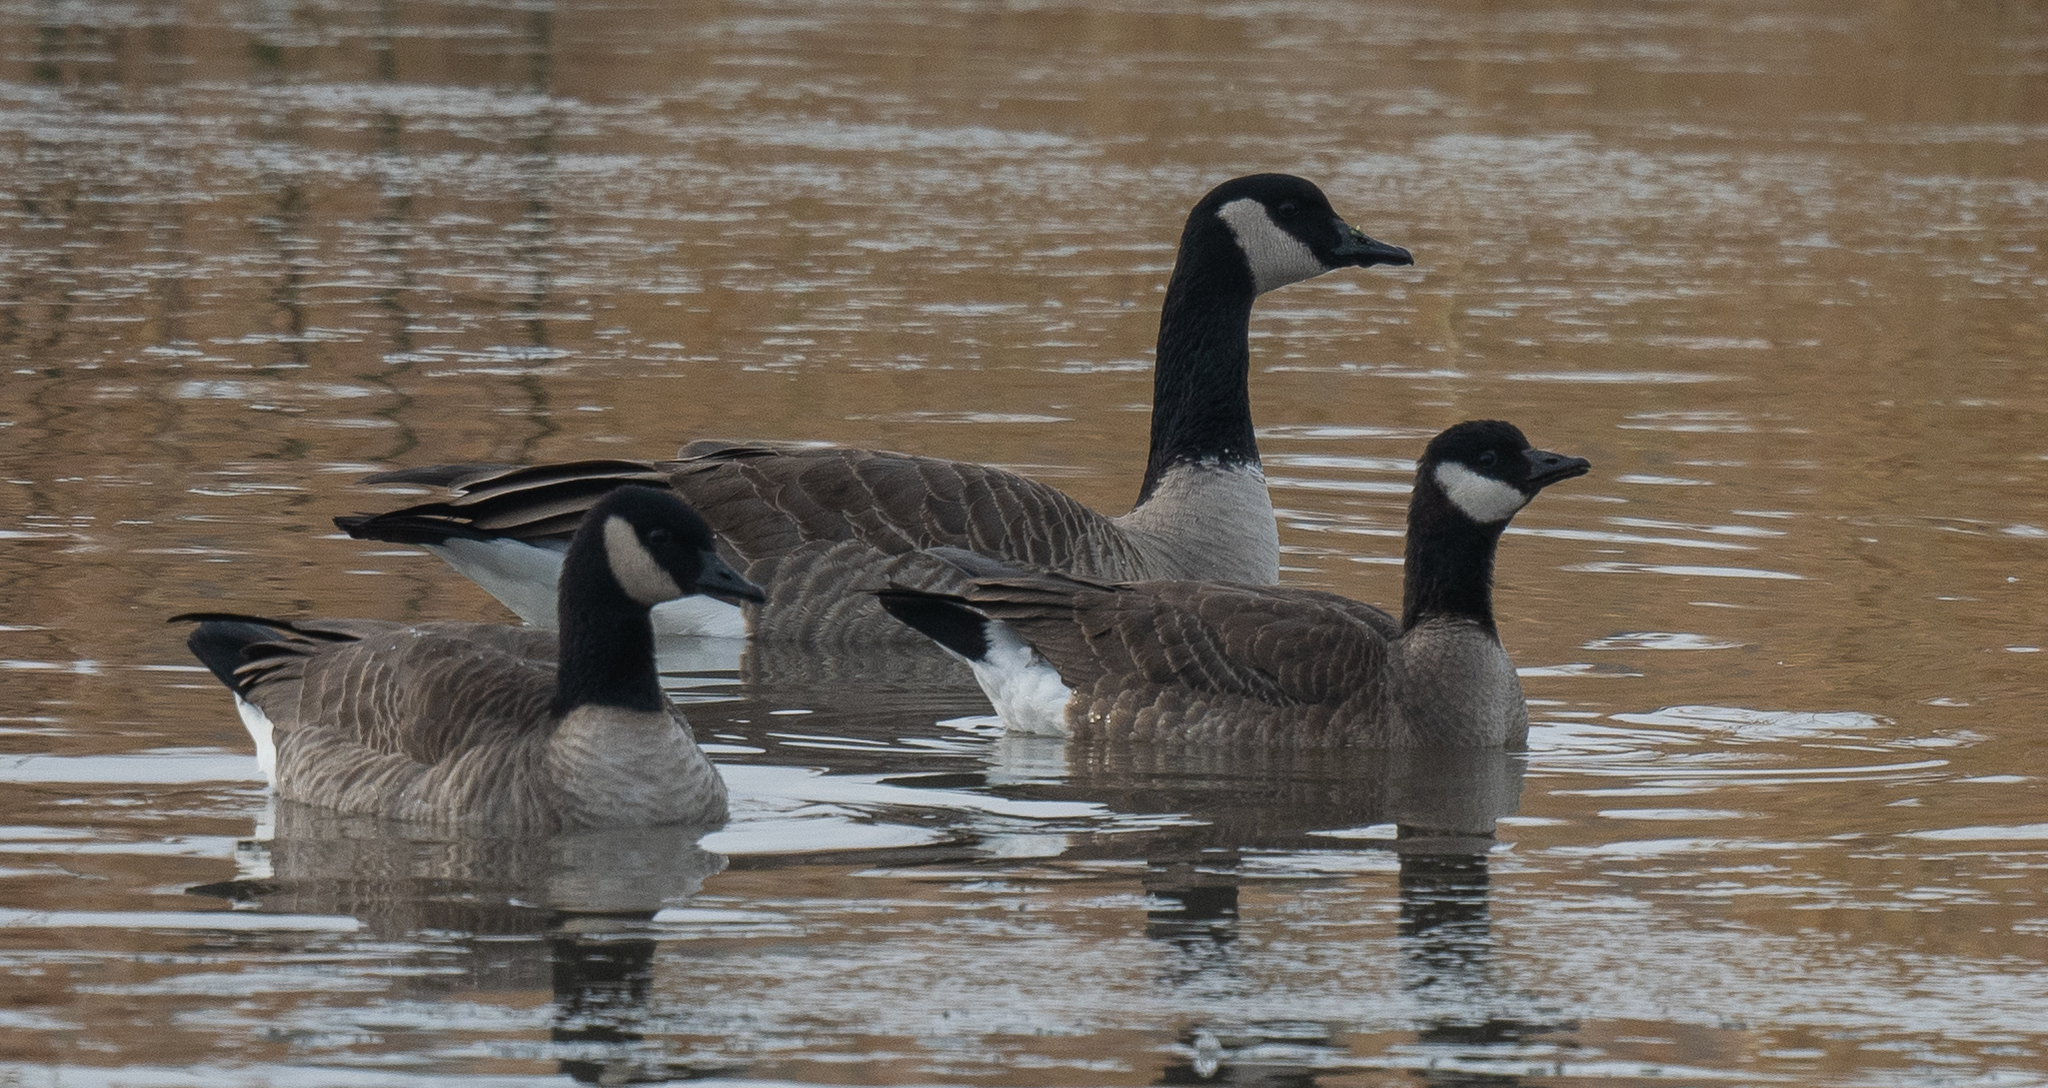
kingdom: Animalia
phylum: Chordata
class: Aves
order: Anseriformes
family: Anatidae
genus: Branta
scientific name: Branta hutchinsii
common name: Cackling goose
